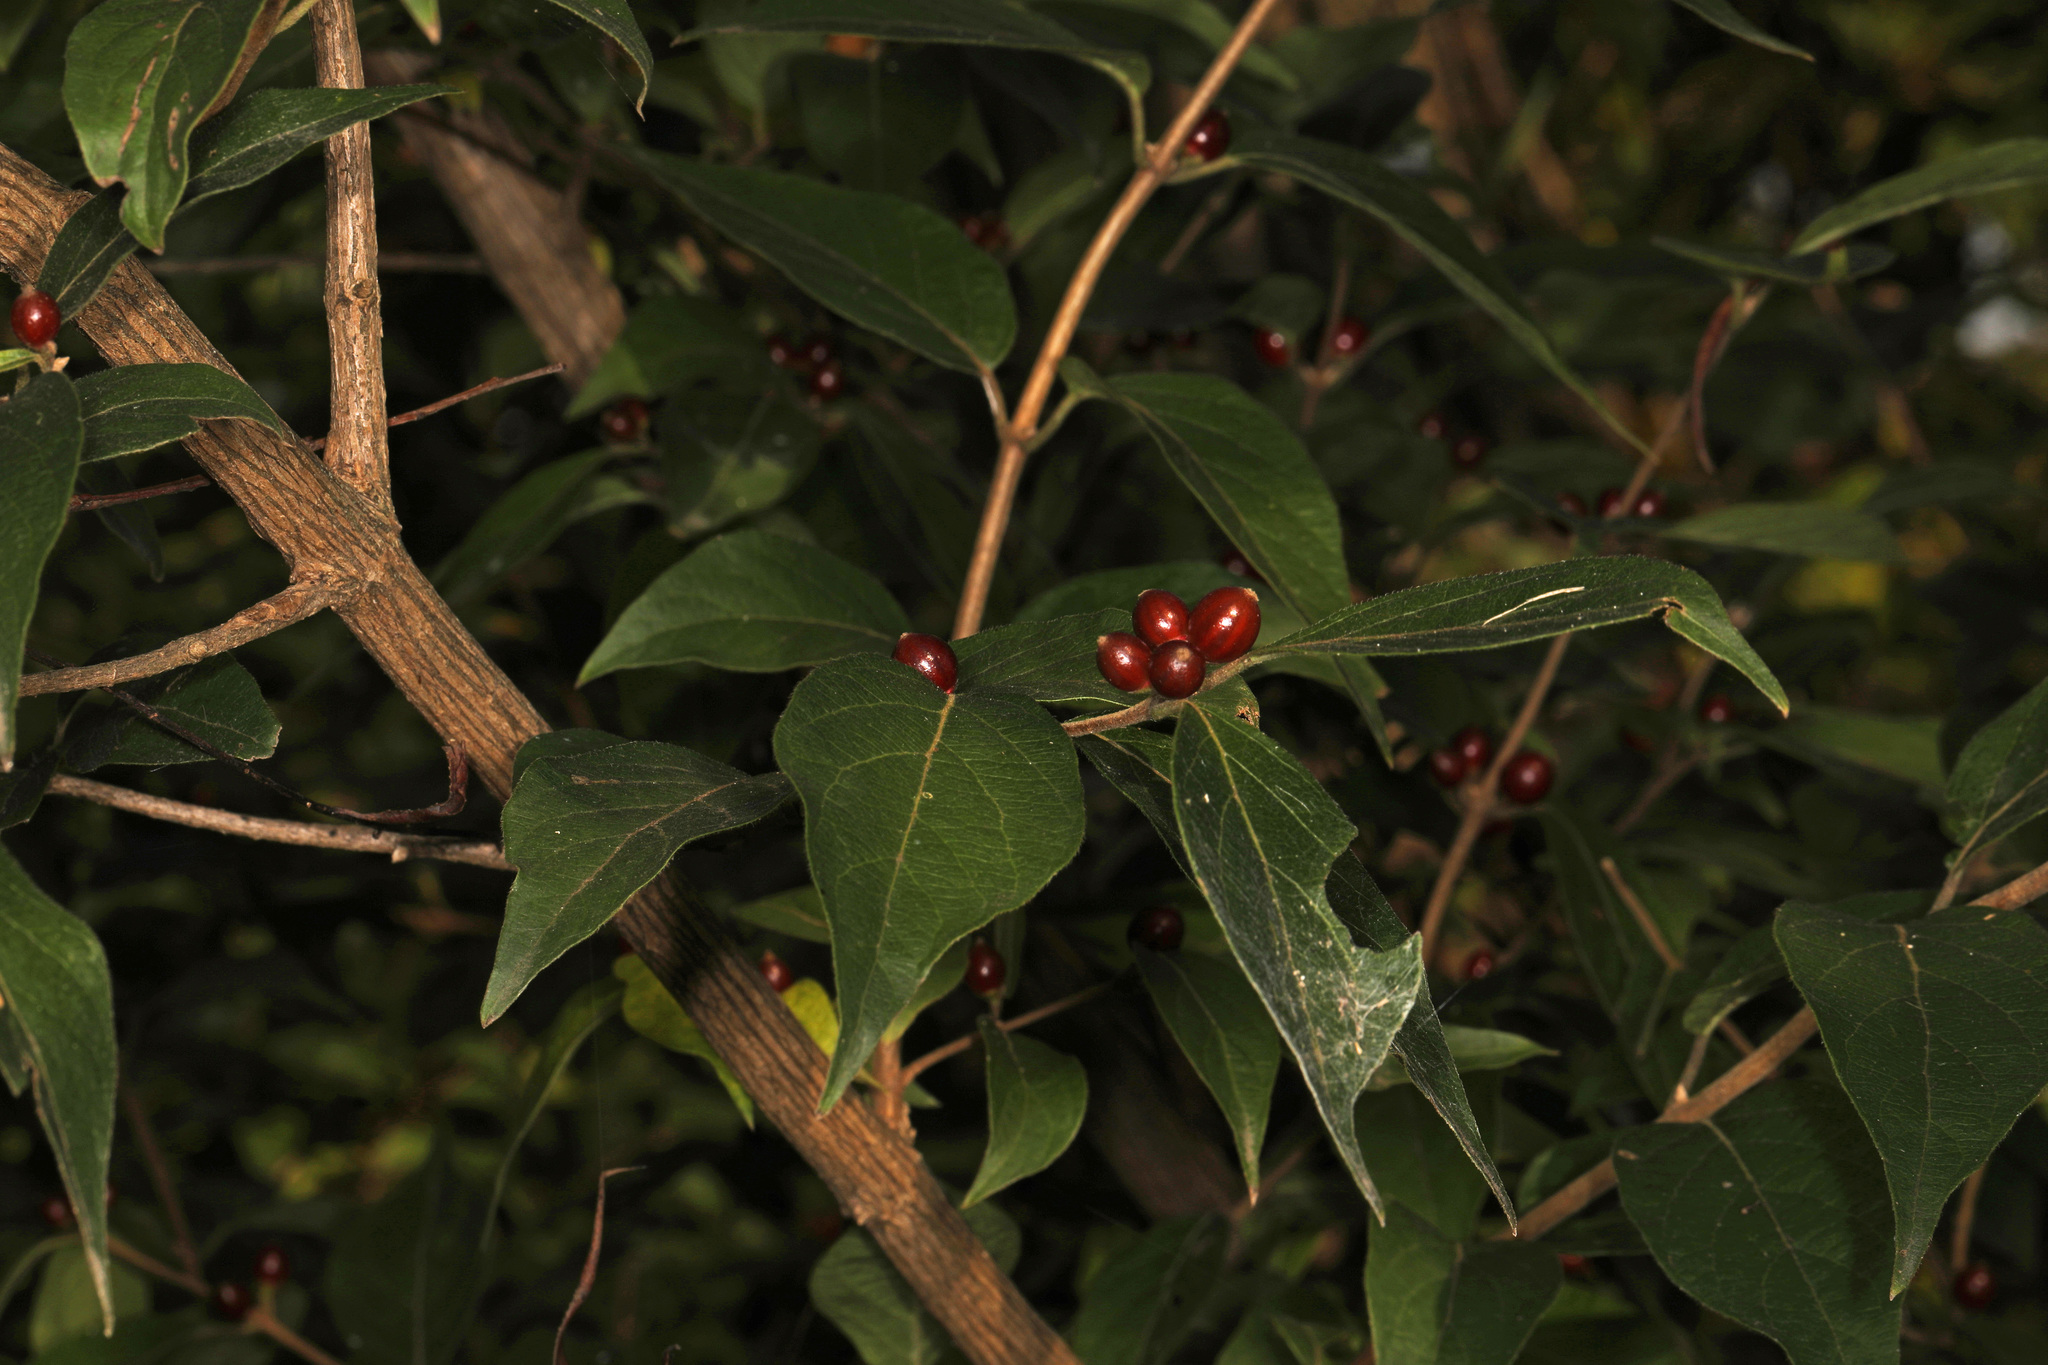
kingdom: Plantae
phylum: Tracheophyta
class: Magnoliopsida
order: Dipsacales
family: Caprifoliaceae
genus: Lonicera
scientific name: Lonicera maackii
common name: Amur honeysuckle
